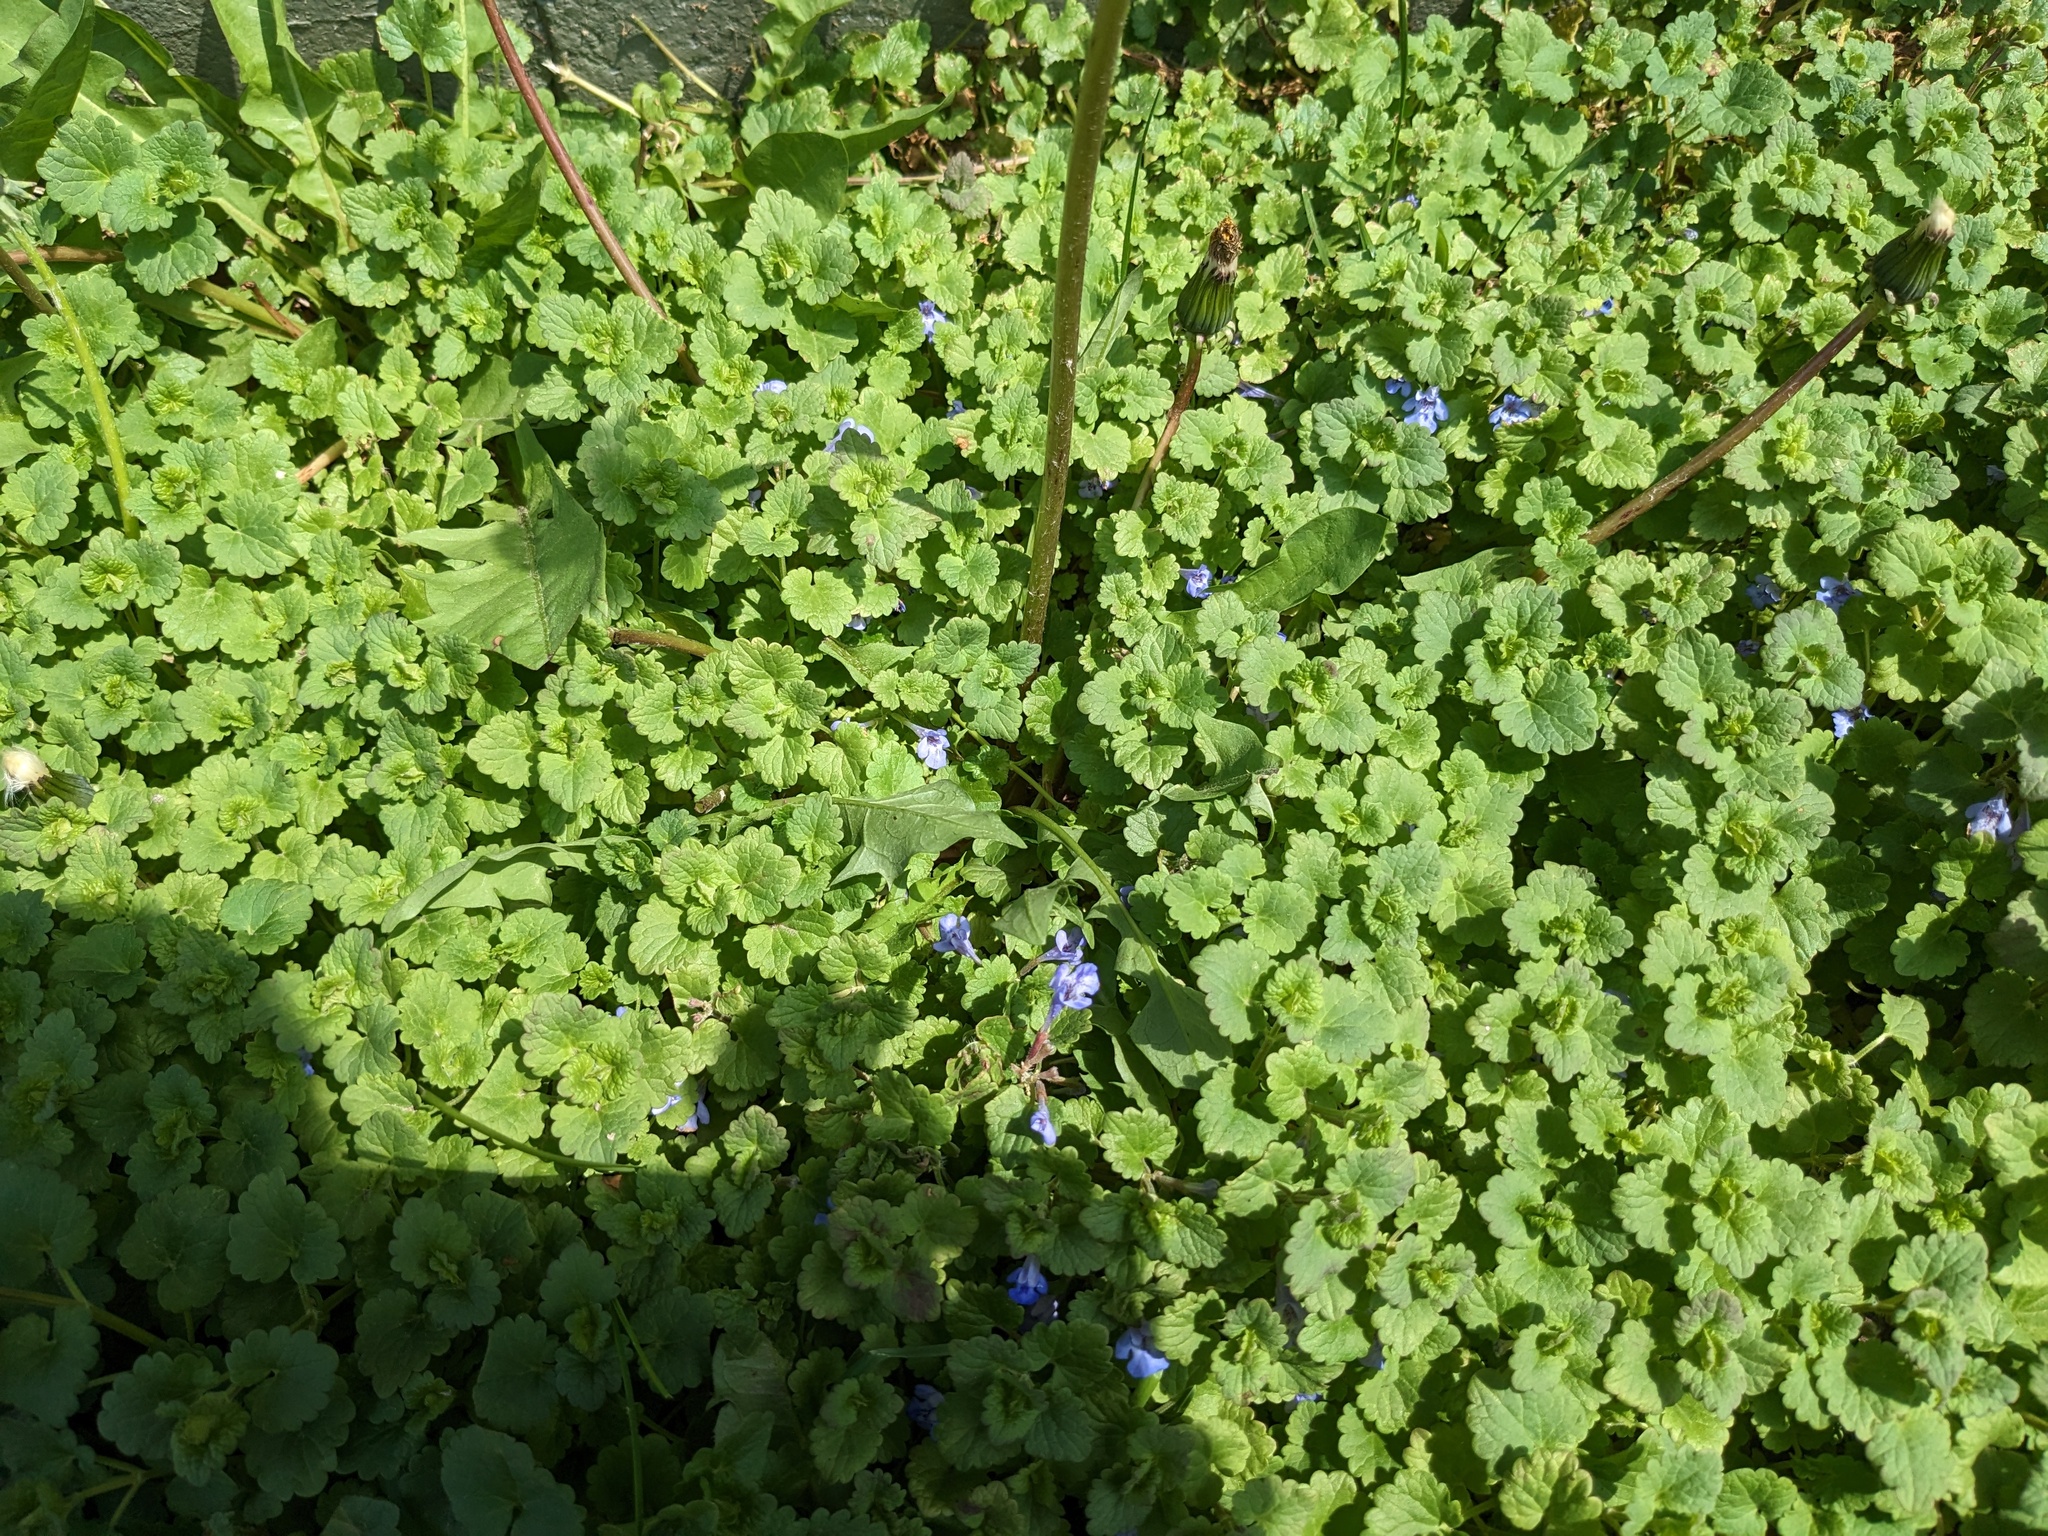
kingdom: Plantae
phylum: Tracheophyta
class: Magnoliopsida
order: Asterales
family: Asteraceae
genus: Taraxacum
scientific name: Taraxacum officinale
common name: Common dandelion
